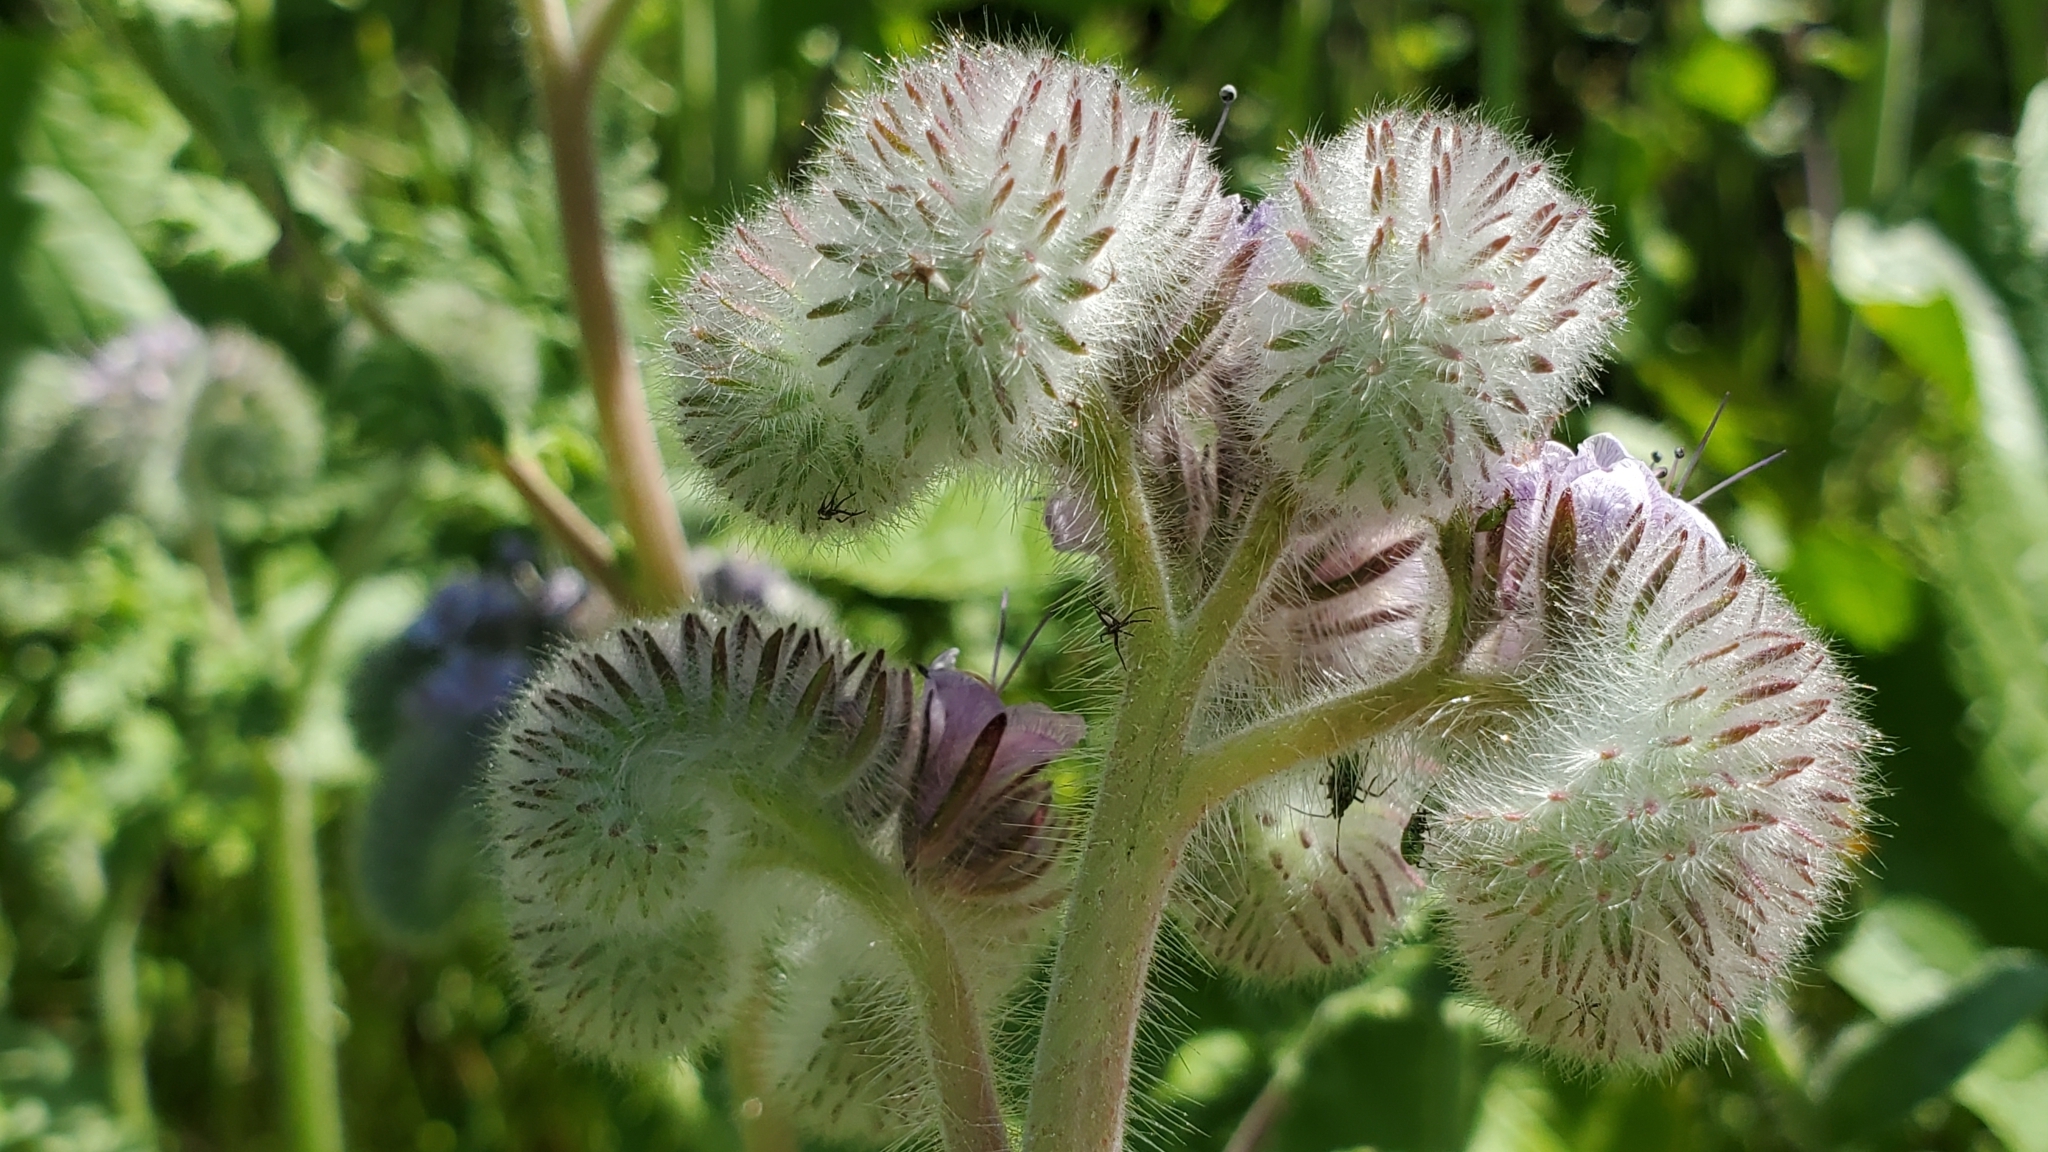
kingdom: Plantae
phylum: Tracheophyta
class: Magnoliopsida
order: Boraginales
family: Hydrophyllaceae
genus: Phacelia
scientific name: Phacelia hubbyi
